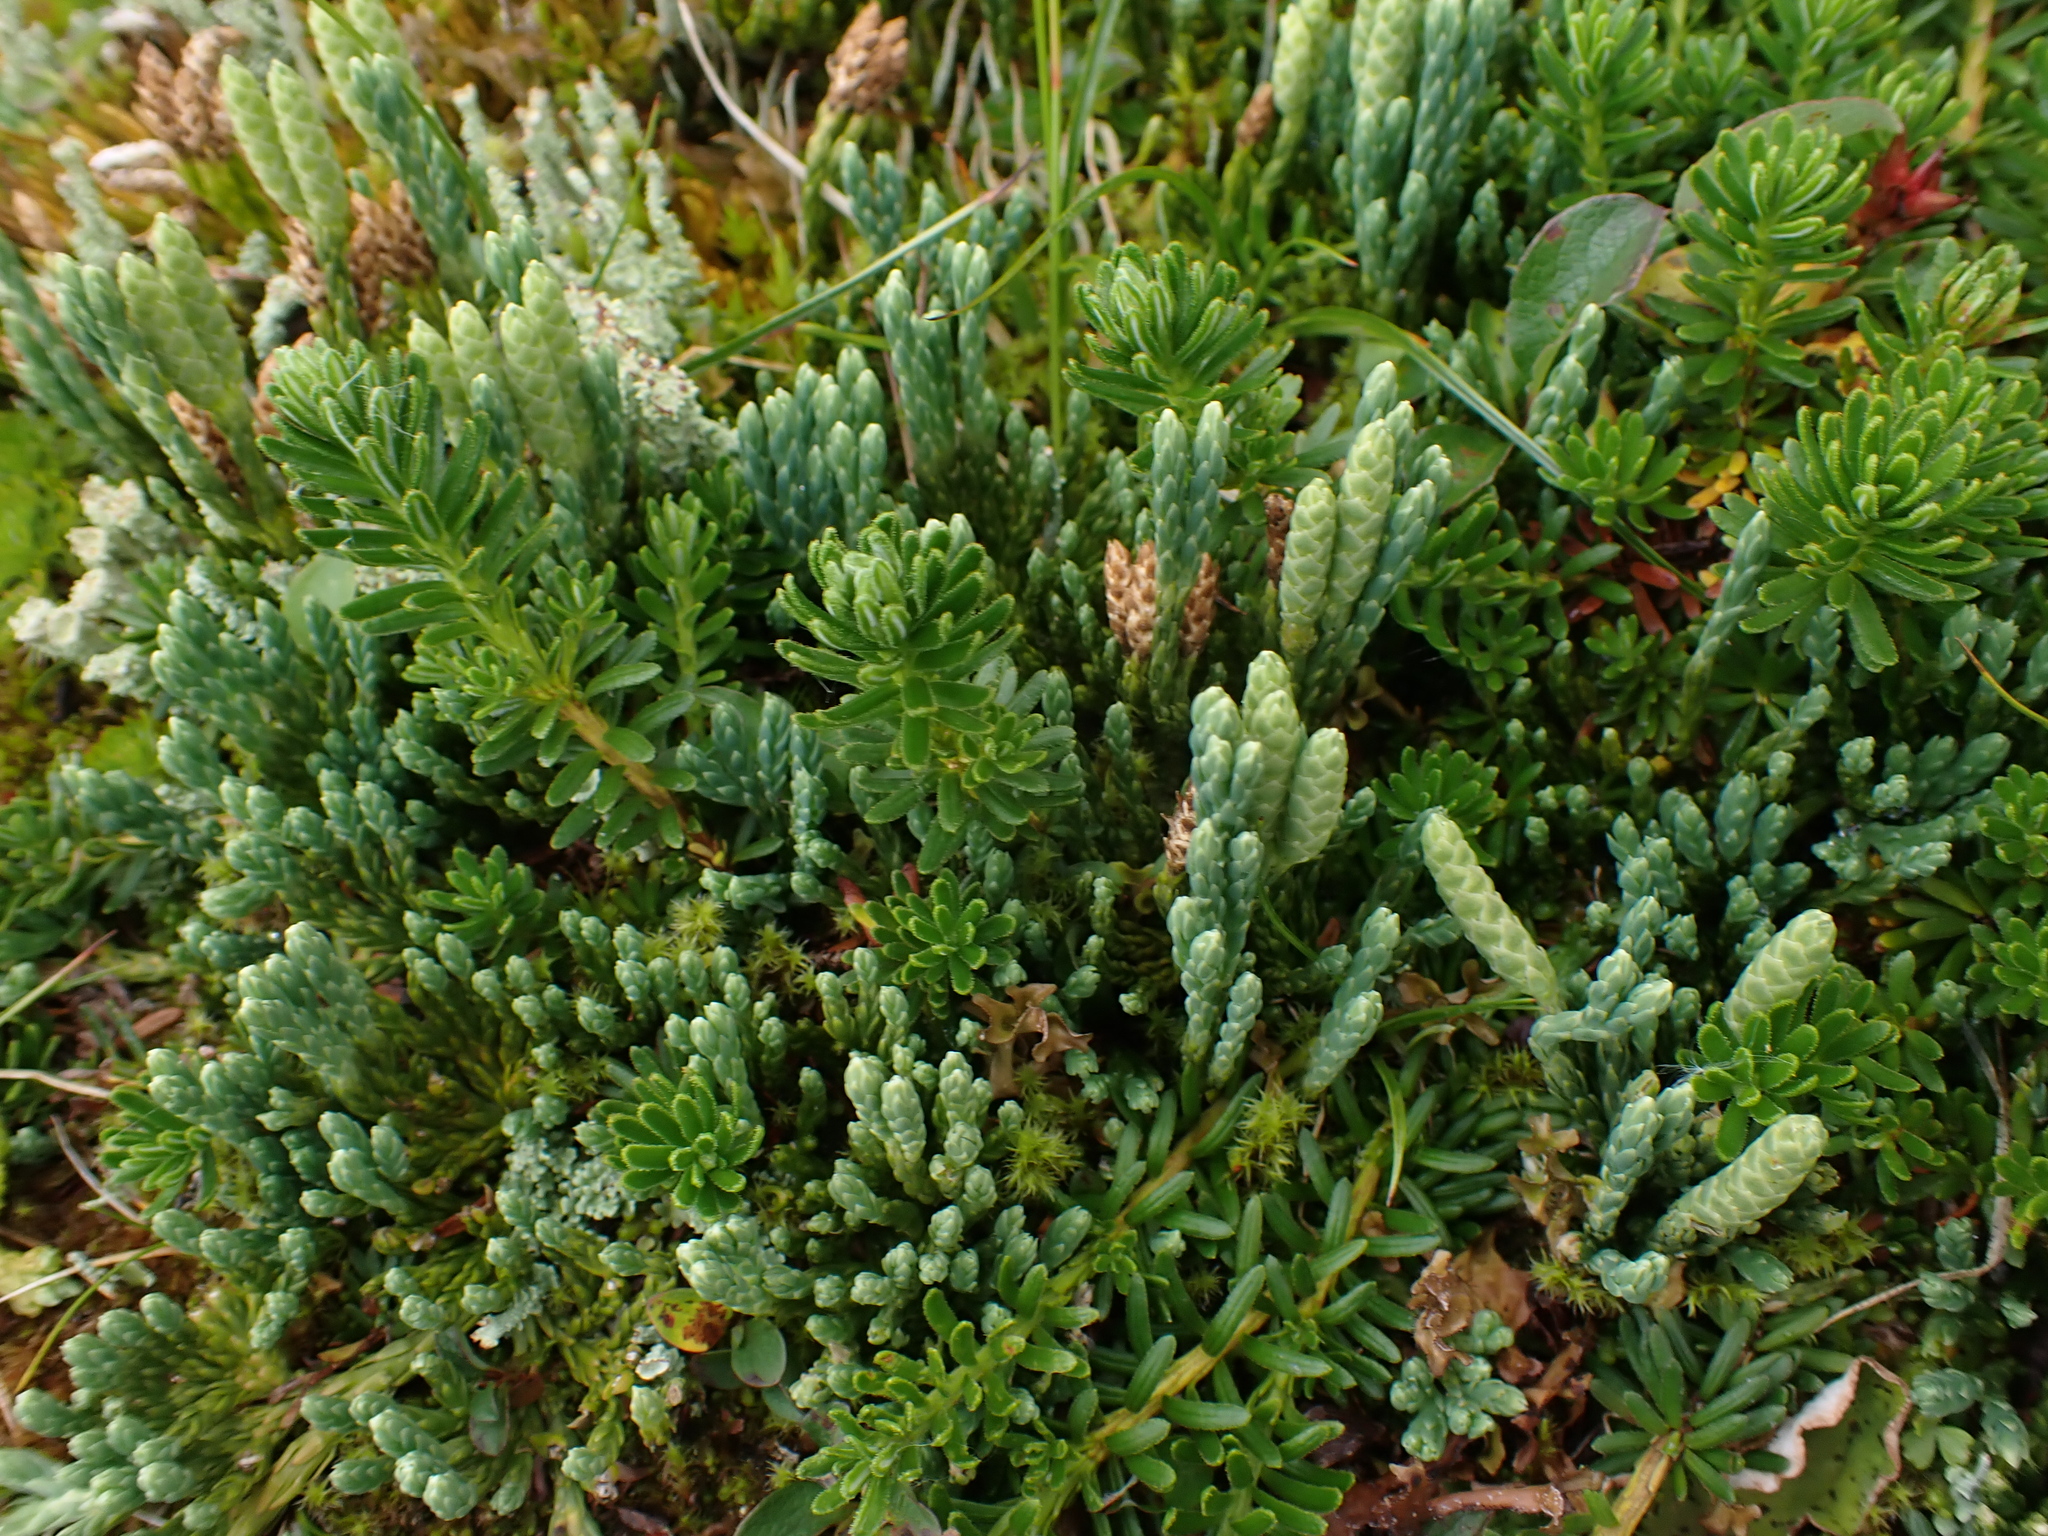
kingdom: Plantae
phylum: Tracheophyta
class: Lycopodiopsida
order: Lycopodiales
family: Lycopodiaceae
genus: Diphasiastrum
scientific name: Diphasiastrum alpinum
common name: Alpine clubmoss
